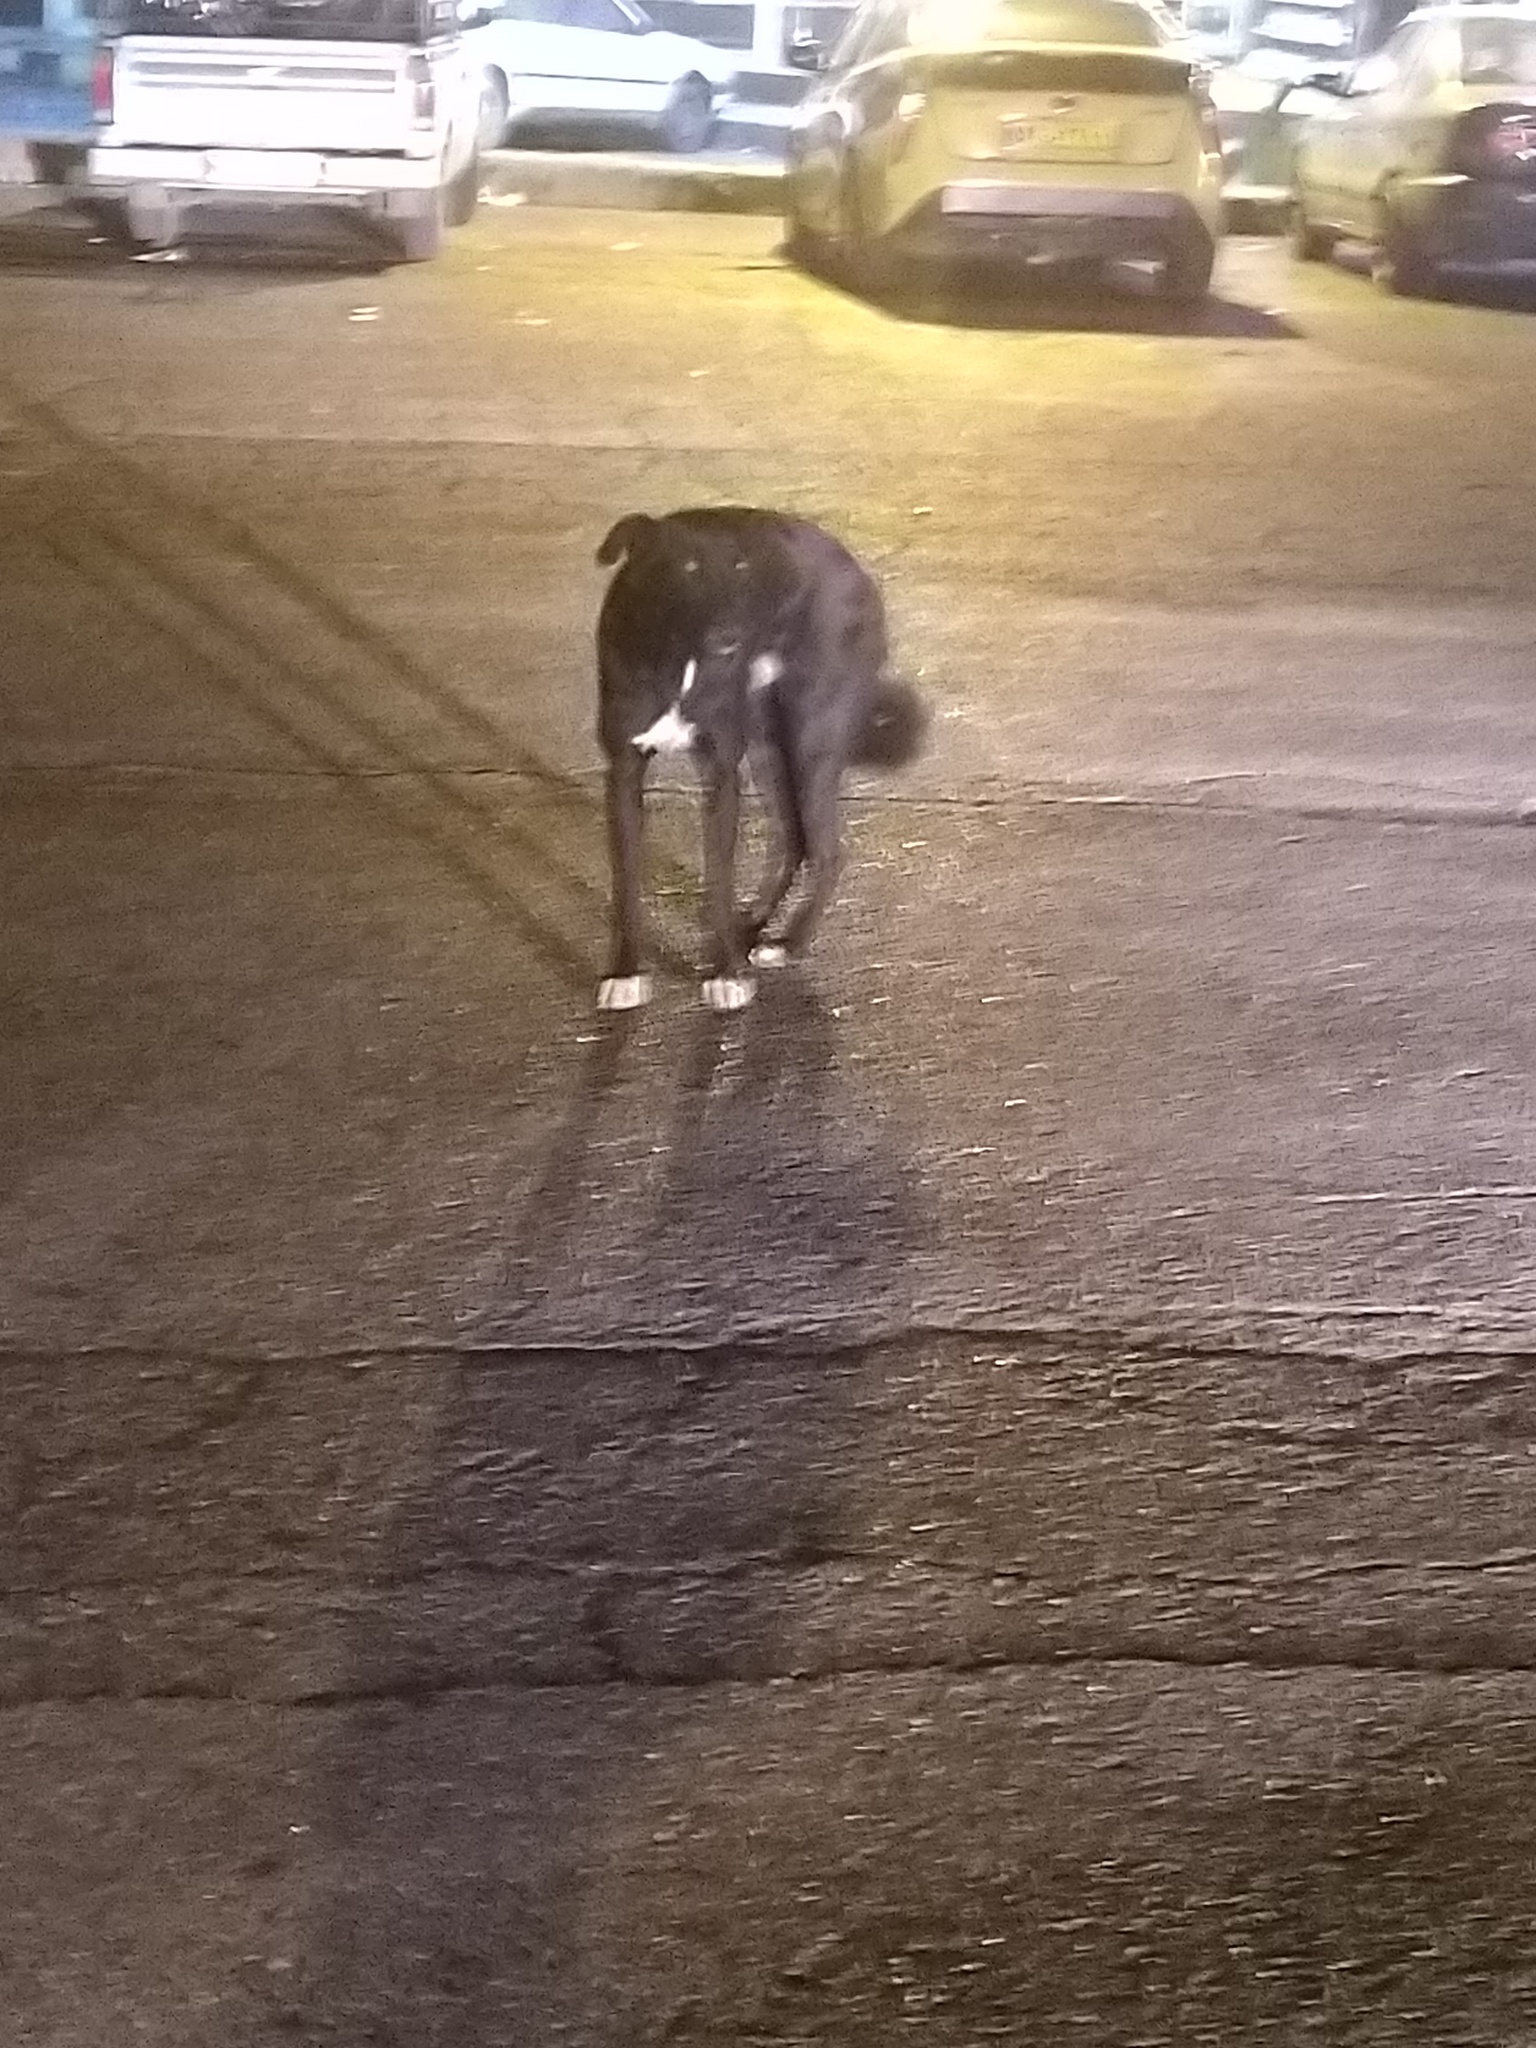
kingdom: Animalia
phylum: Chordata
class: Mammalia
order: Carnivora
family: Canidae
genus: Canis
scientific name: Canis lupus
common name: Gray wolf
